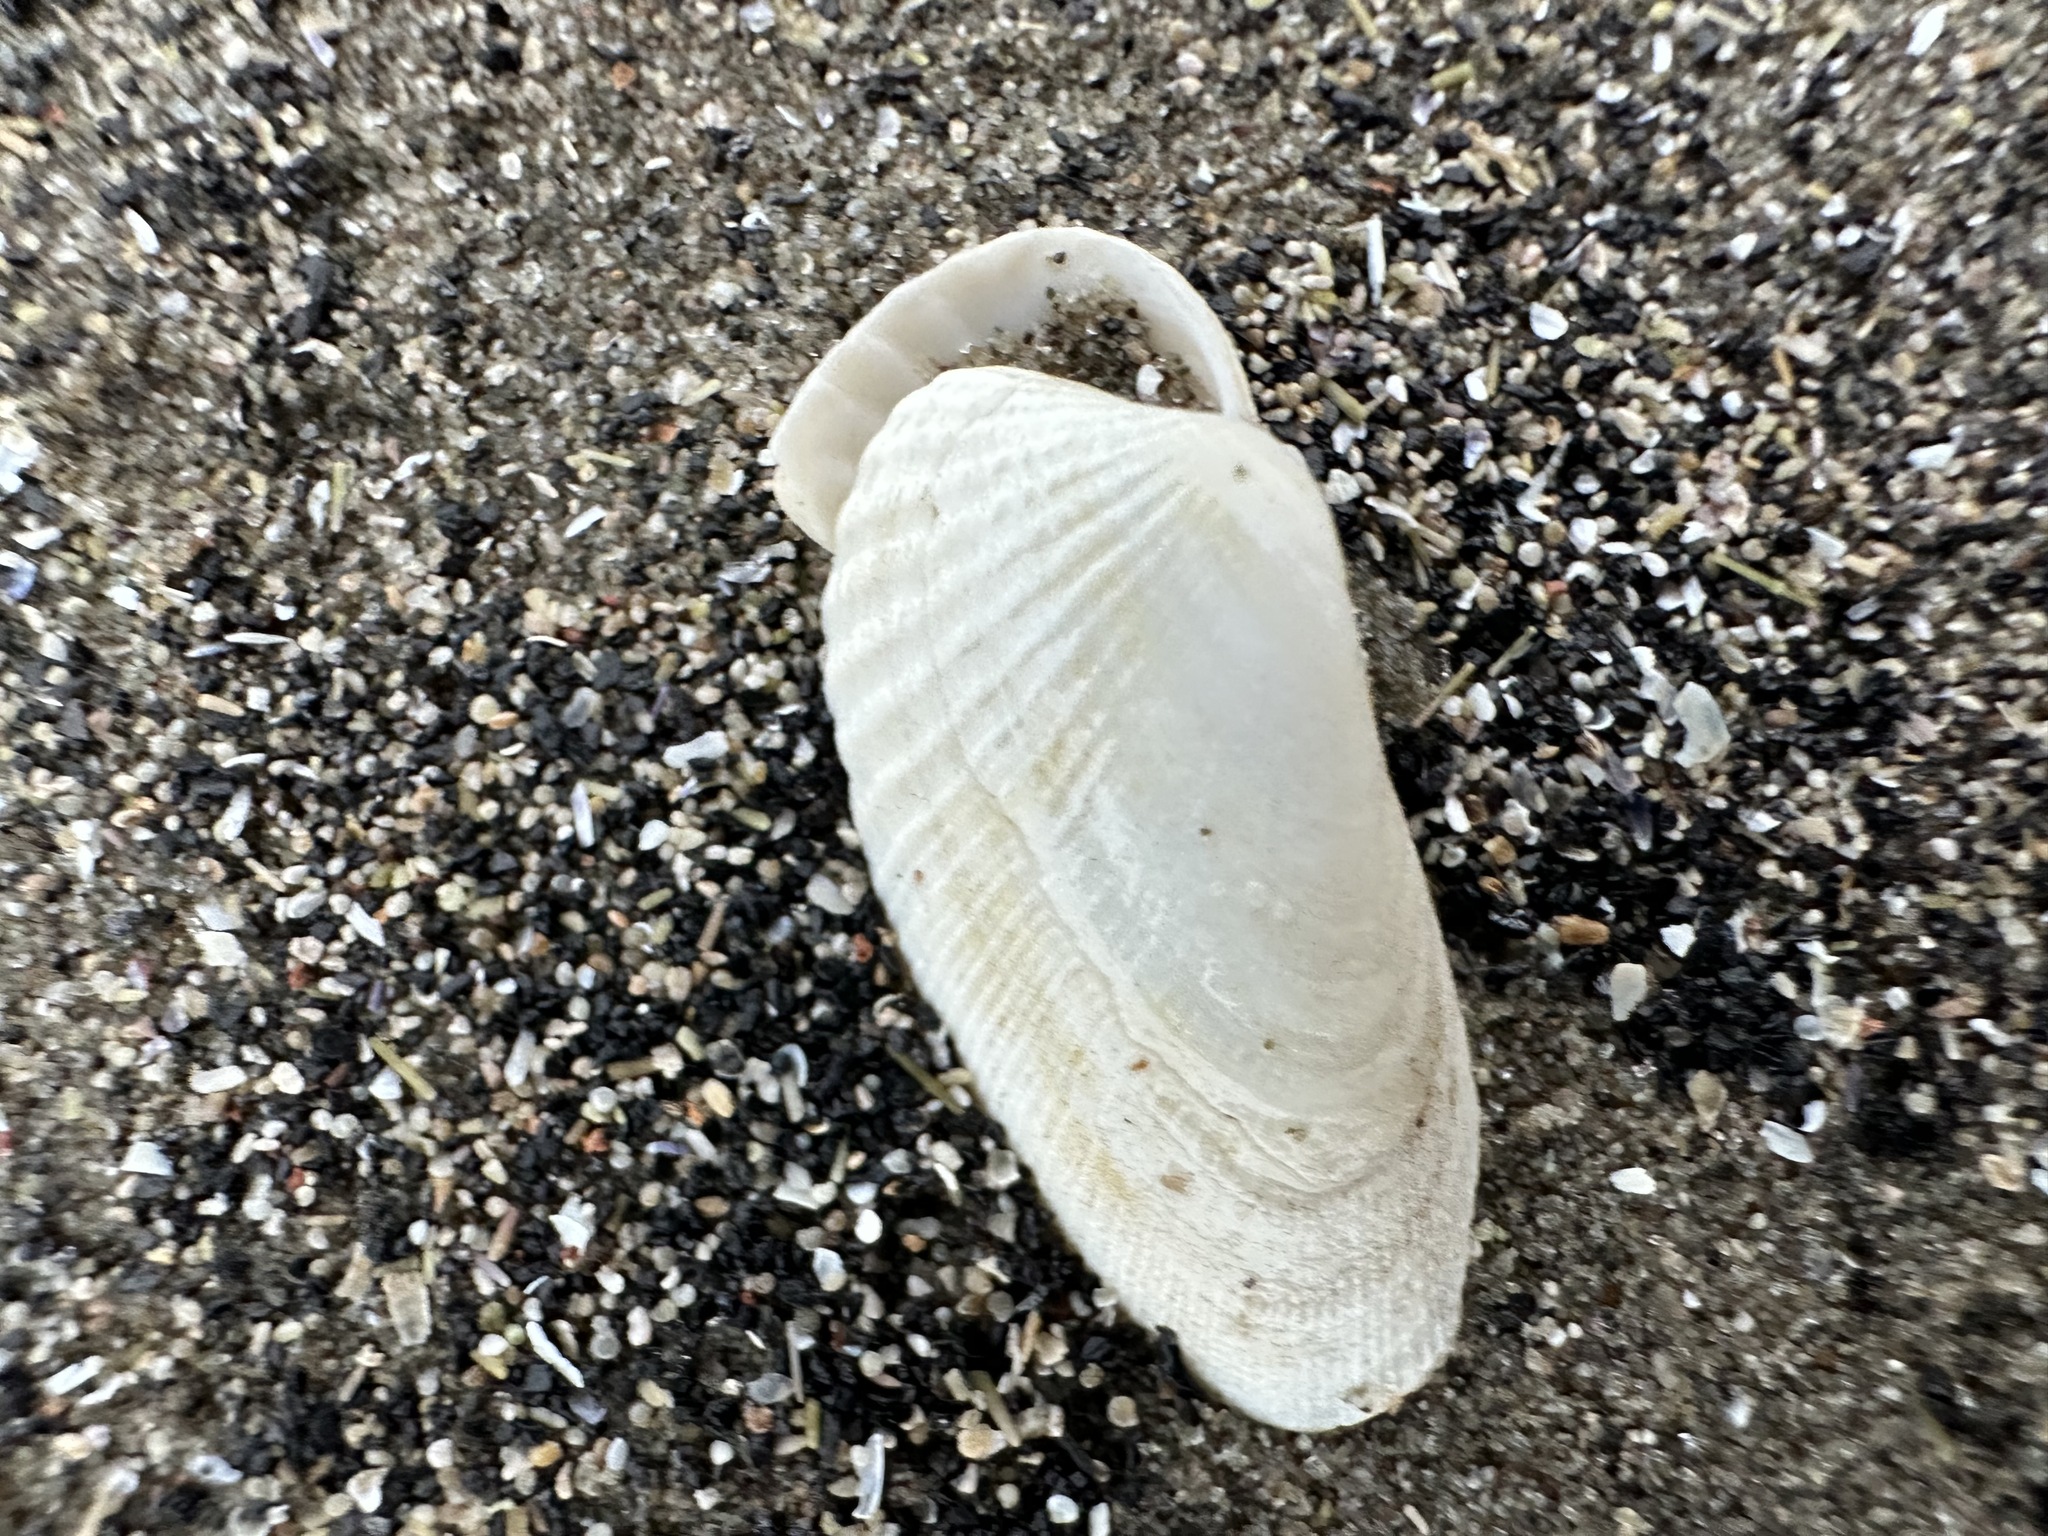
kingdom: Animalia
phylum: Mollusca
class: Bivalvia
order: Venerida
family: Veneridae
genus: Petricolaria
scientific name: Petricolaria pholadiformis
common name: American piddock
